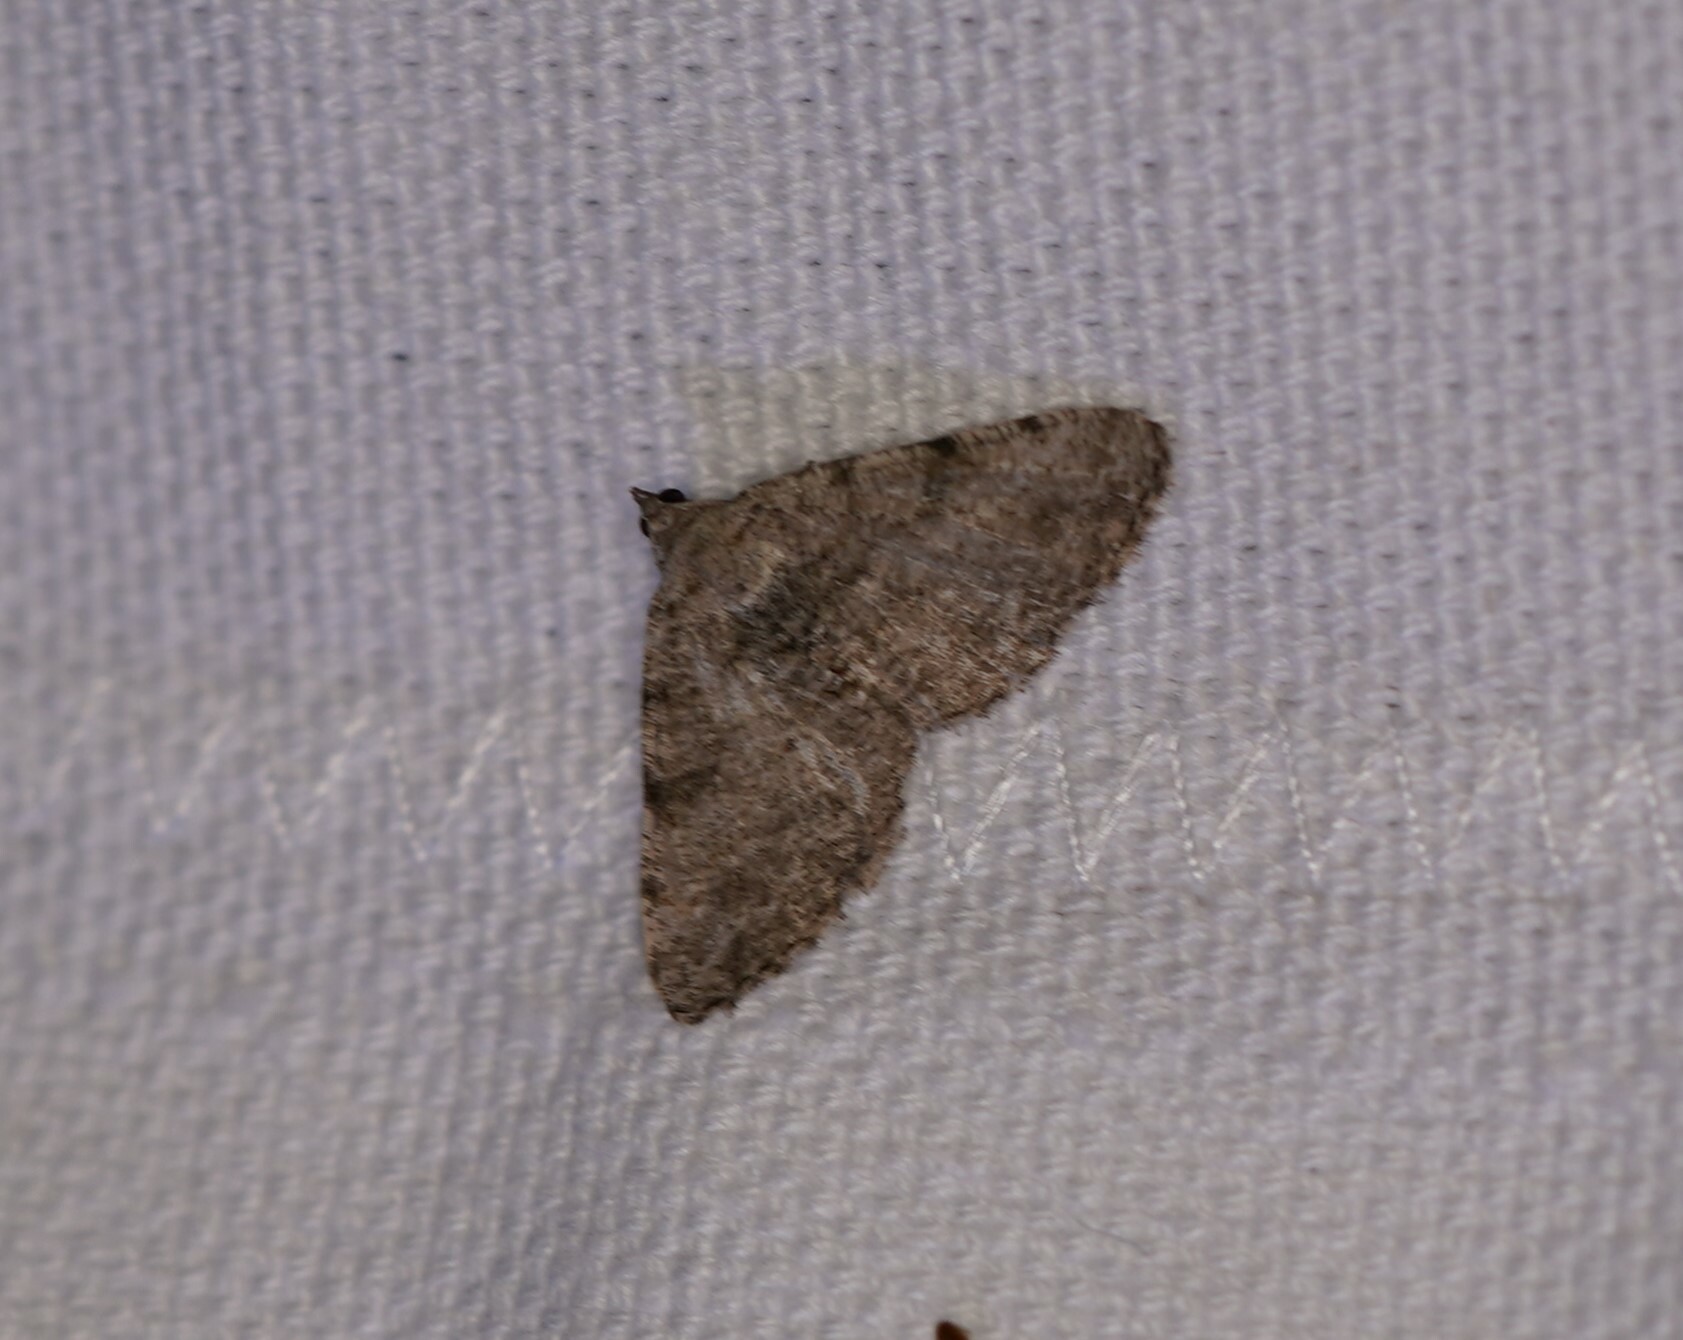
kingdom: Animalia
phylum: Arthropoda
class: Insecta
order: Lepidoptera
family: Geometridae
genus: Digrammia
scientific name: Digrammia gnophosaria
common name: Hollow-spotted angle
